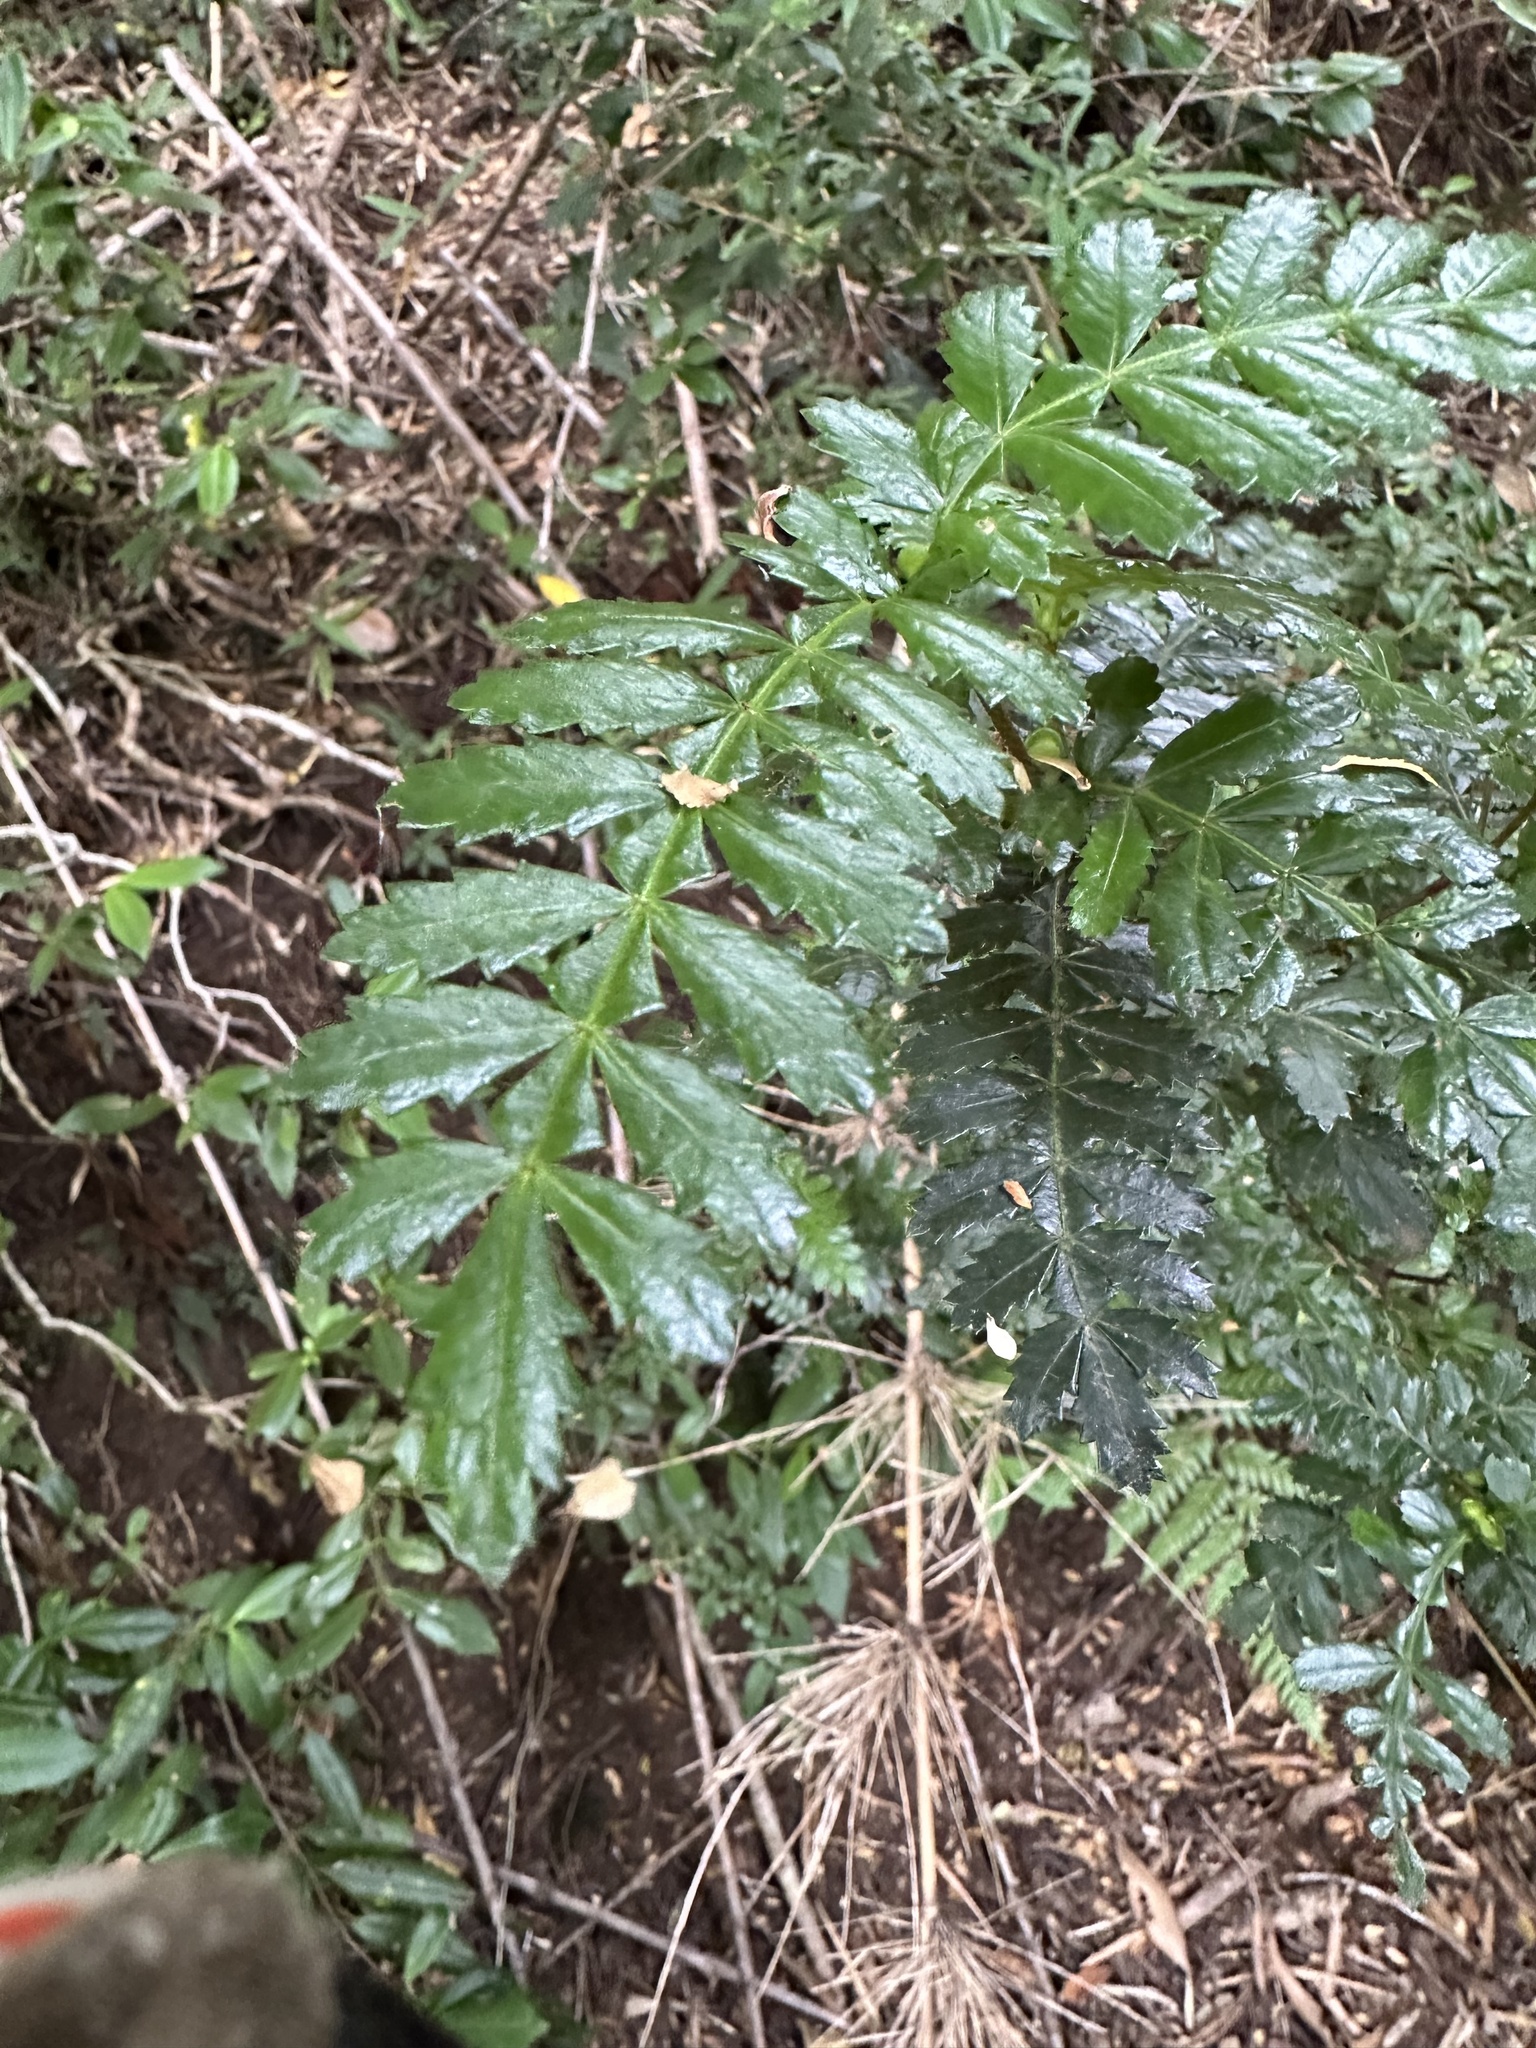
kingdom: Plantae
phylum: Tracheophyta
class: Magnoliopsida
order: Oxalidales
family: Cunoniaceae
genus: Weinmannia
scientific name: Weinmannia trichosperma
